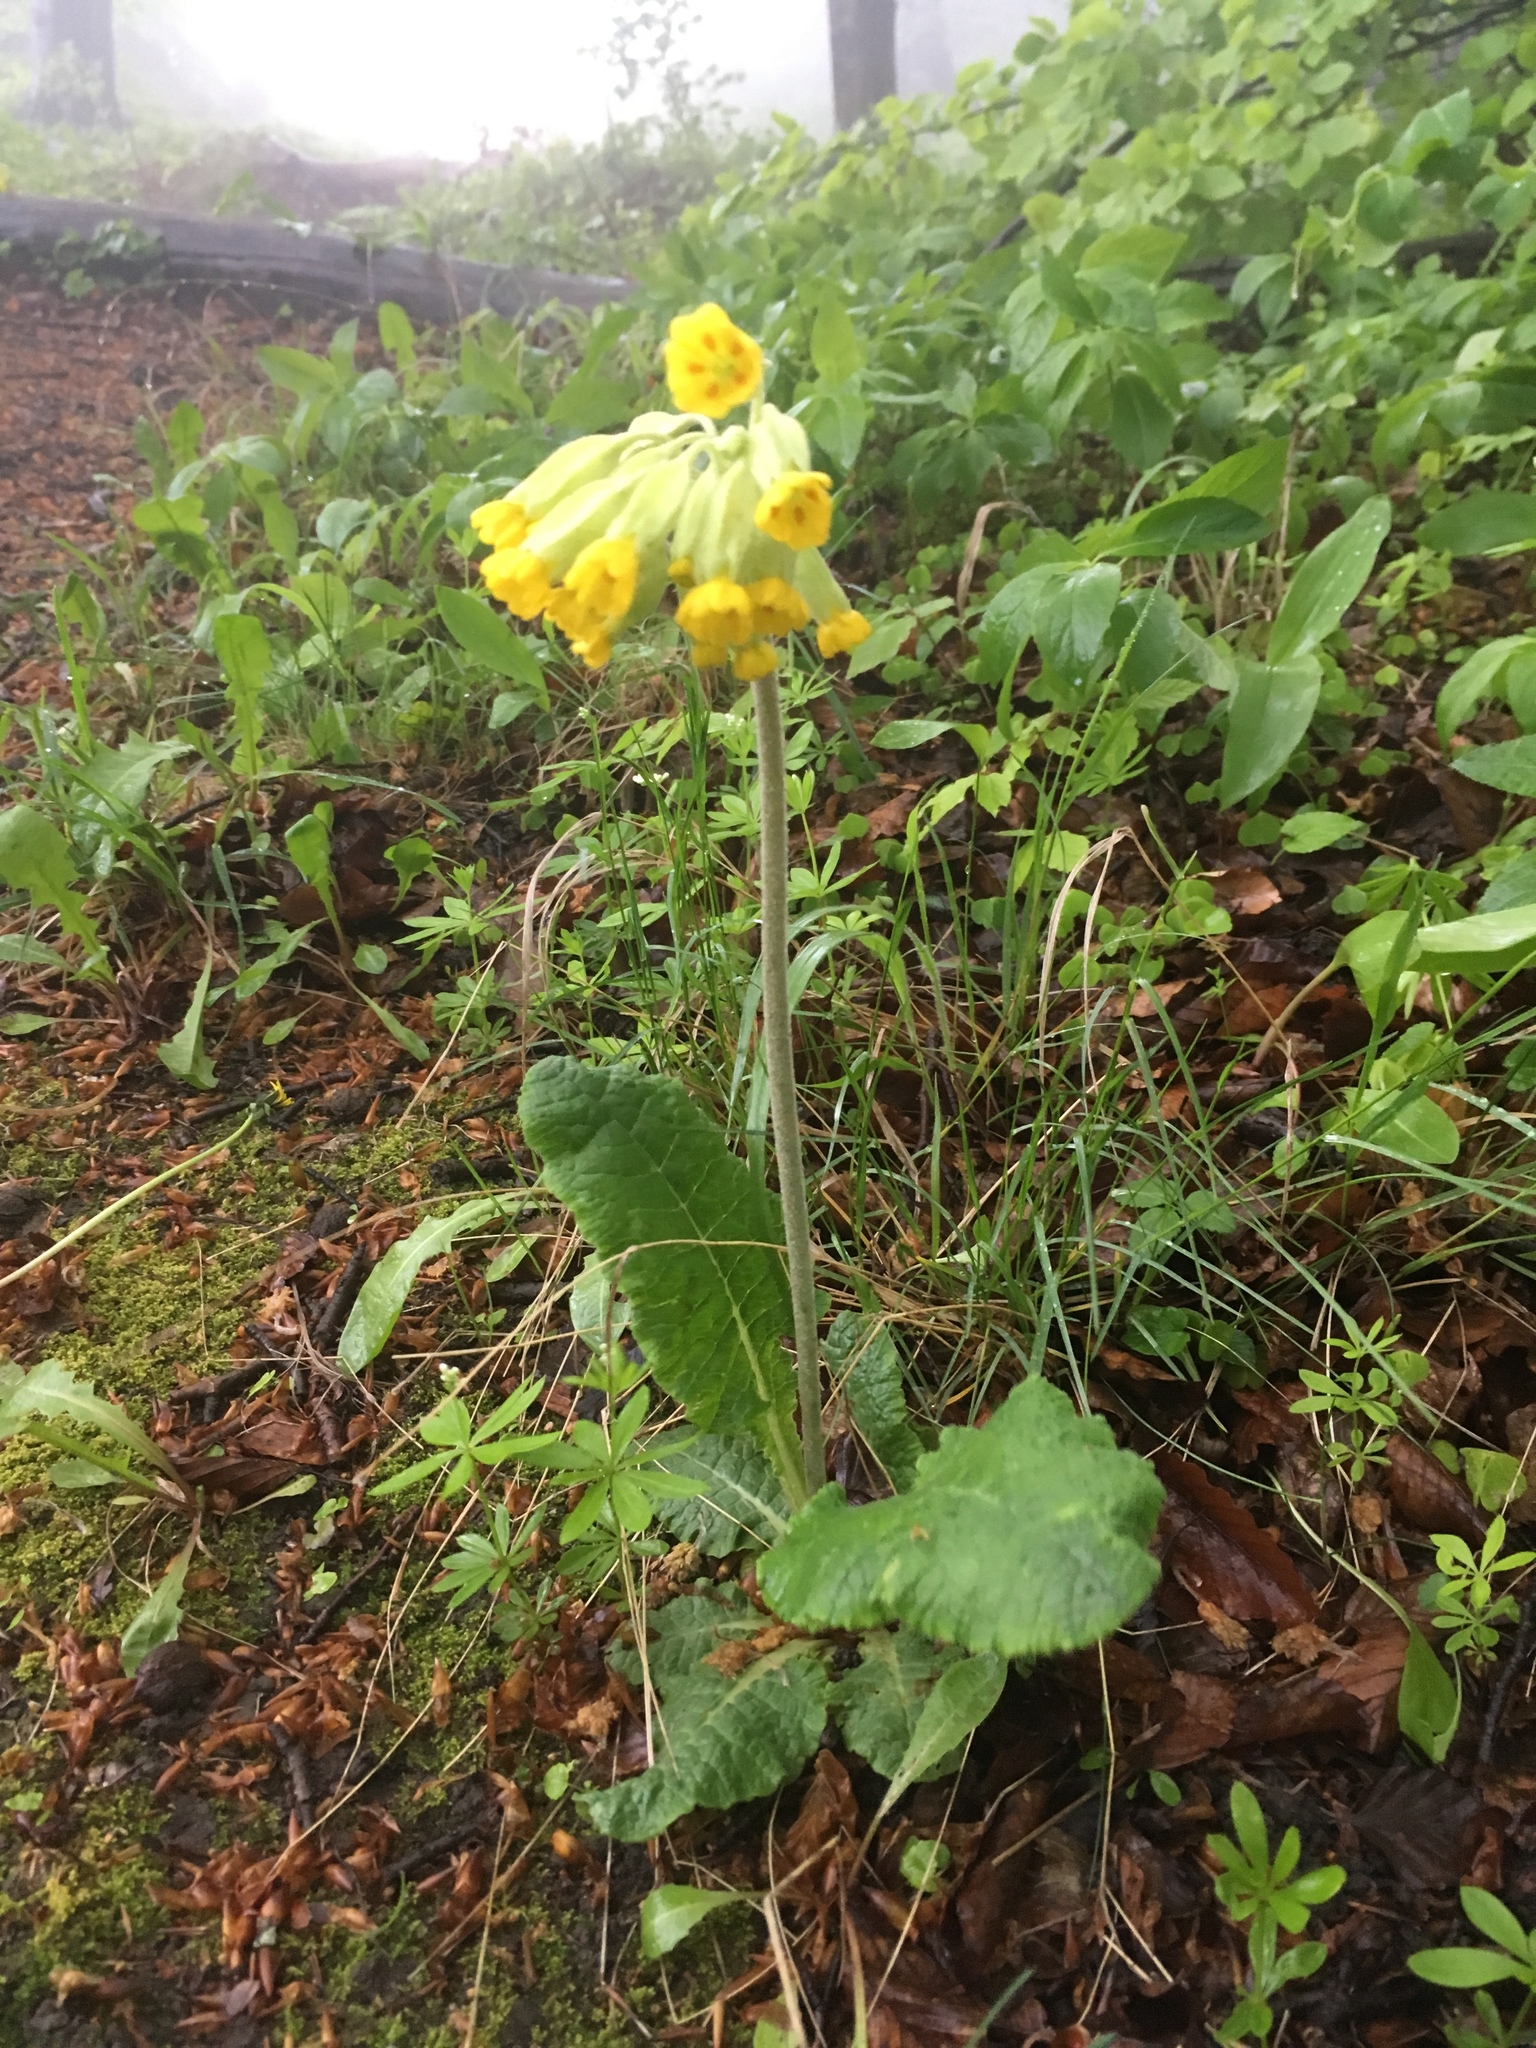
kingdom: Plantae
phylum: Tracheophyta
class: Magnoliopsida
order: Ericales
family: Primulaceae
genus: Primula
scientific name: Primula veris
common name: Cowslip
